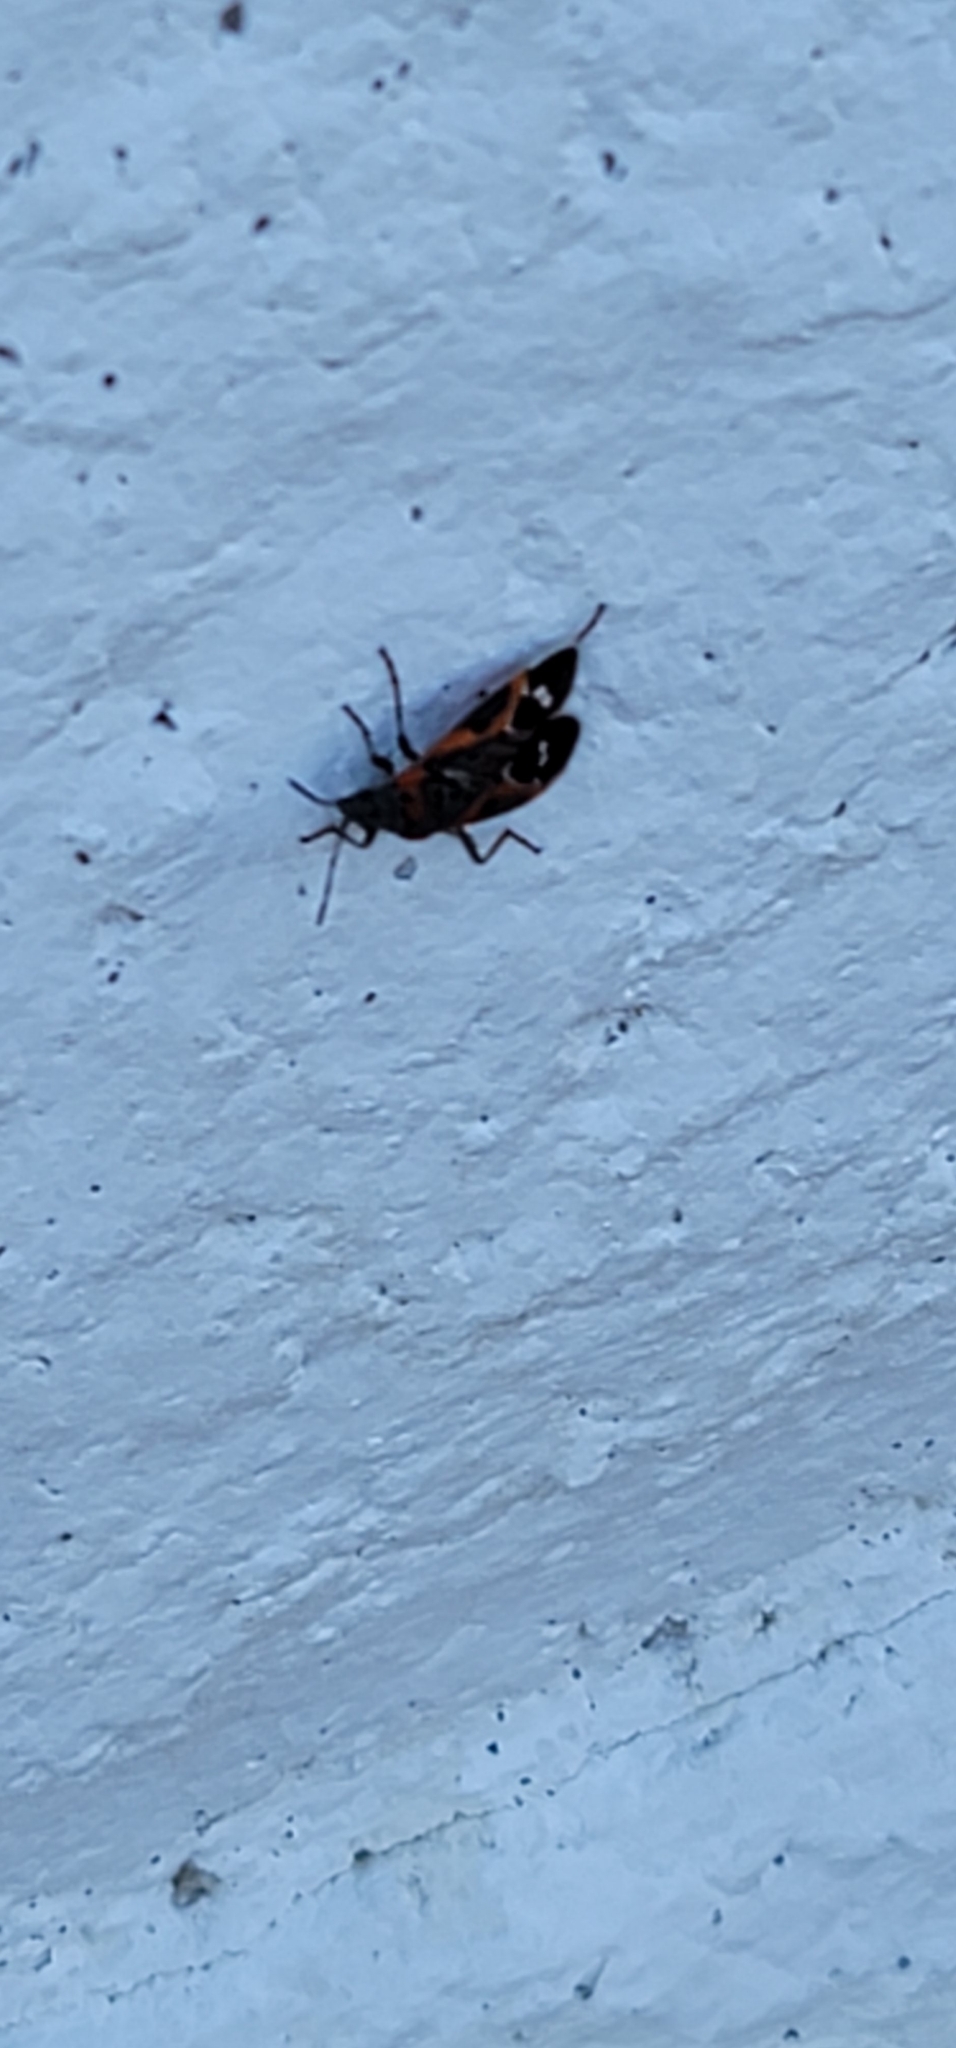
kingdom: Animalia
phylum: Arthropoda
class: Insecta
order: Hemiptera
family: Lygaeidae
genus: Lygaeus
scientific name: Lygaeus kalmii
